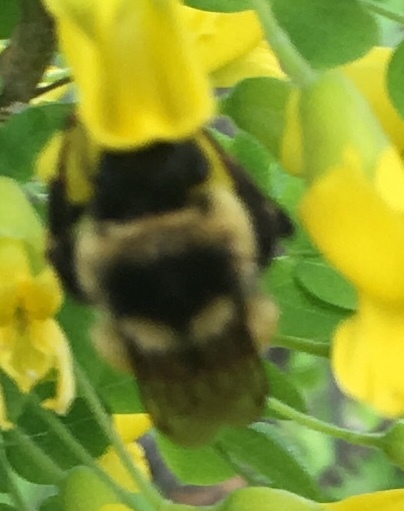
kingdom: Animalia
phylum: Arthropoda
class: Insecta
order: Hymenoptera
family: Apidae
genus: Bombus
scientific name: Bombus ternarius
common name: Tri-colored bumble bee
